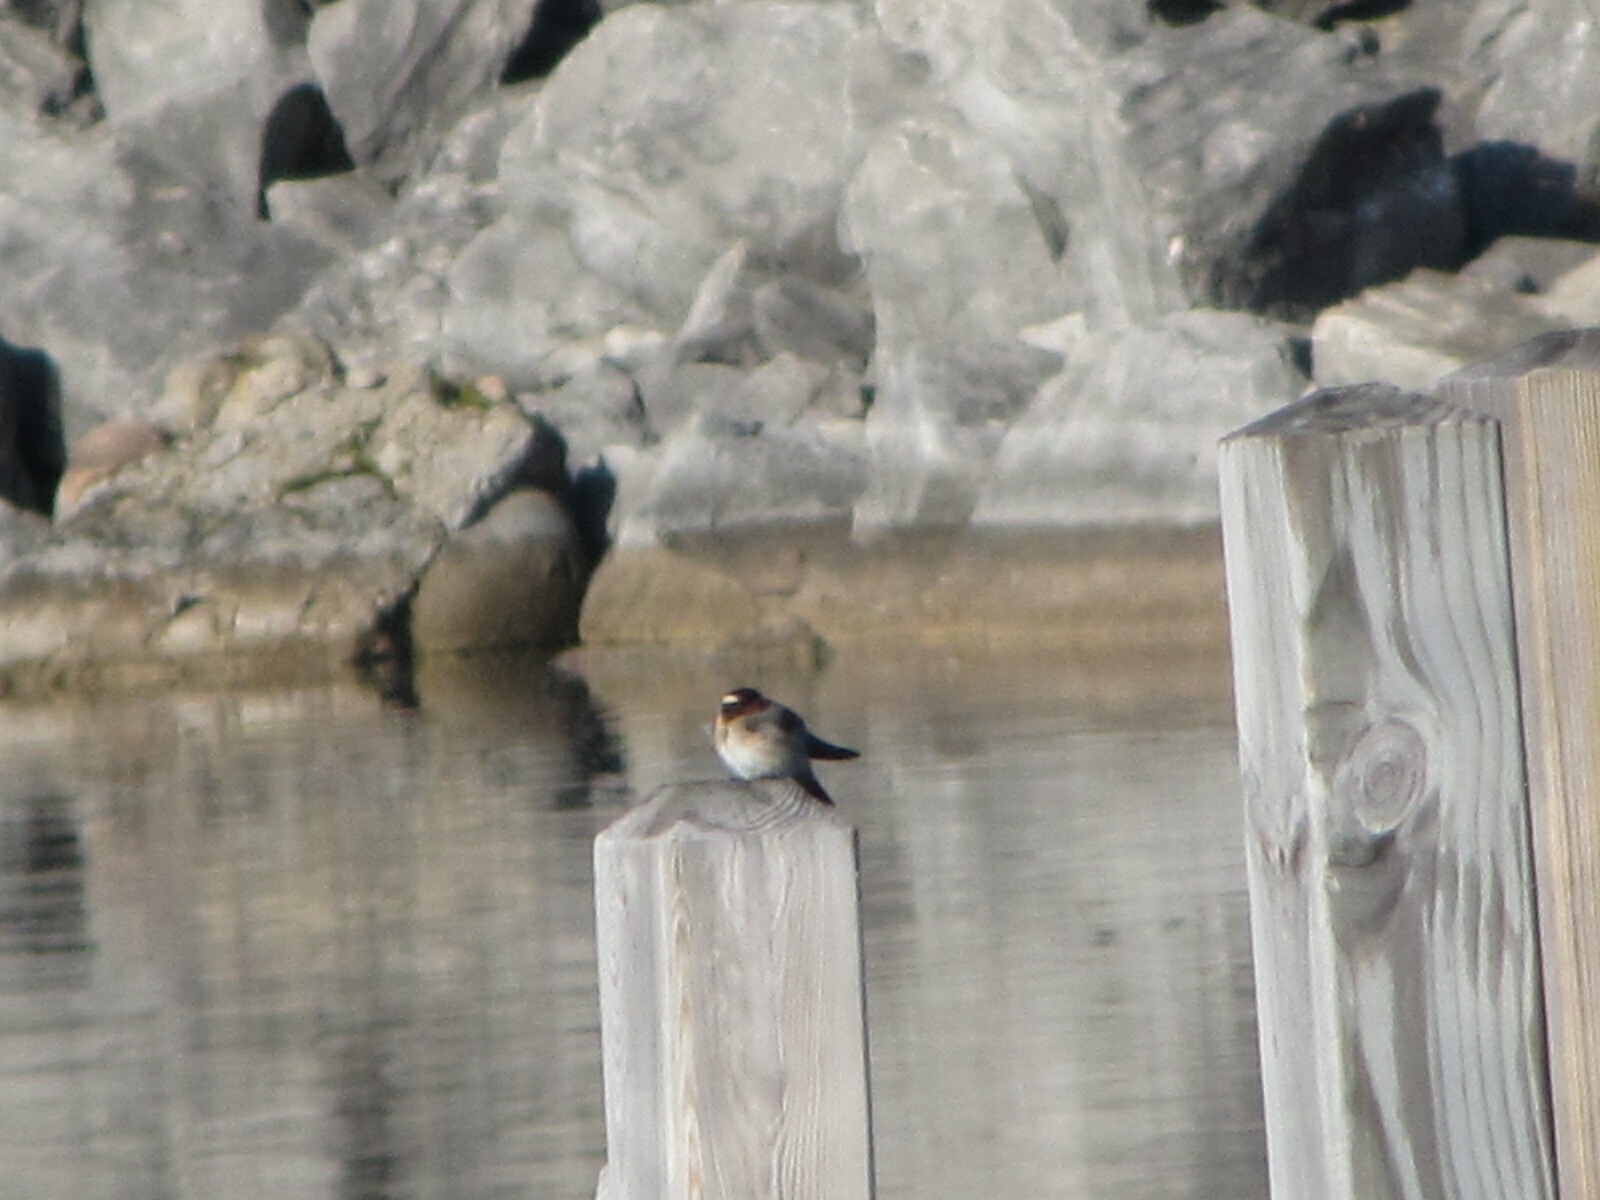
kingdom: Animalia
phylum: Chordata
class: Aves
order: Passeriformes
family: Hirundinidae
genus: Petrochelidon
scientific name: Petrochelidon pyrrhonota
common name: American cliff swallow
